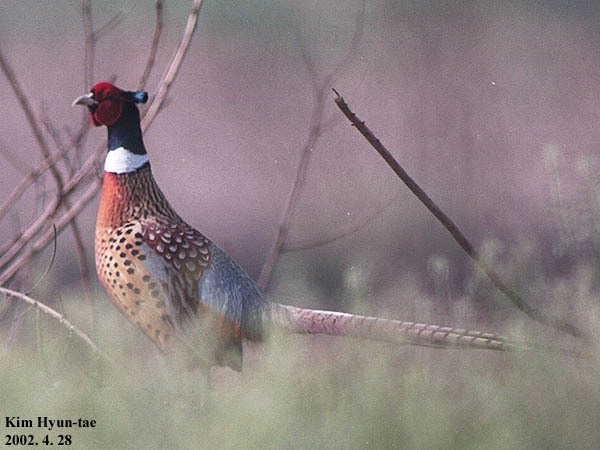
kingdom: Animalia
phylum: Chordata
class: Aves
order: Galliformes
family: Phasianidae
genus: Phasianus
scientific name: Phasianus colchicus
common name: Common pheasant
